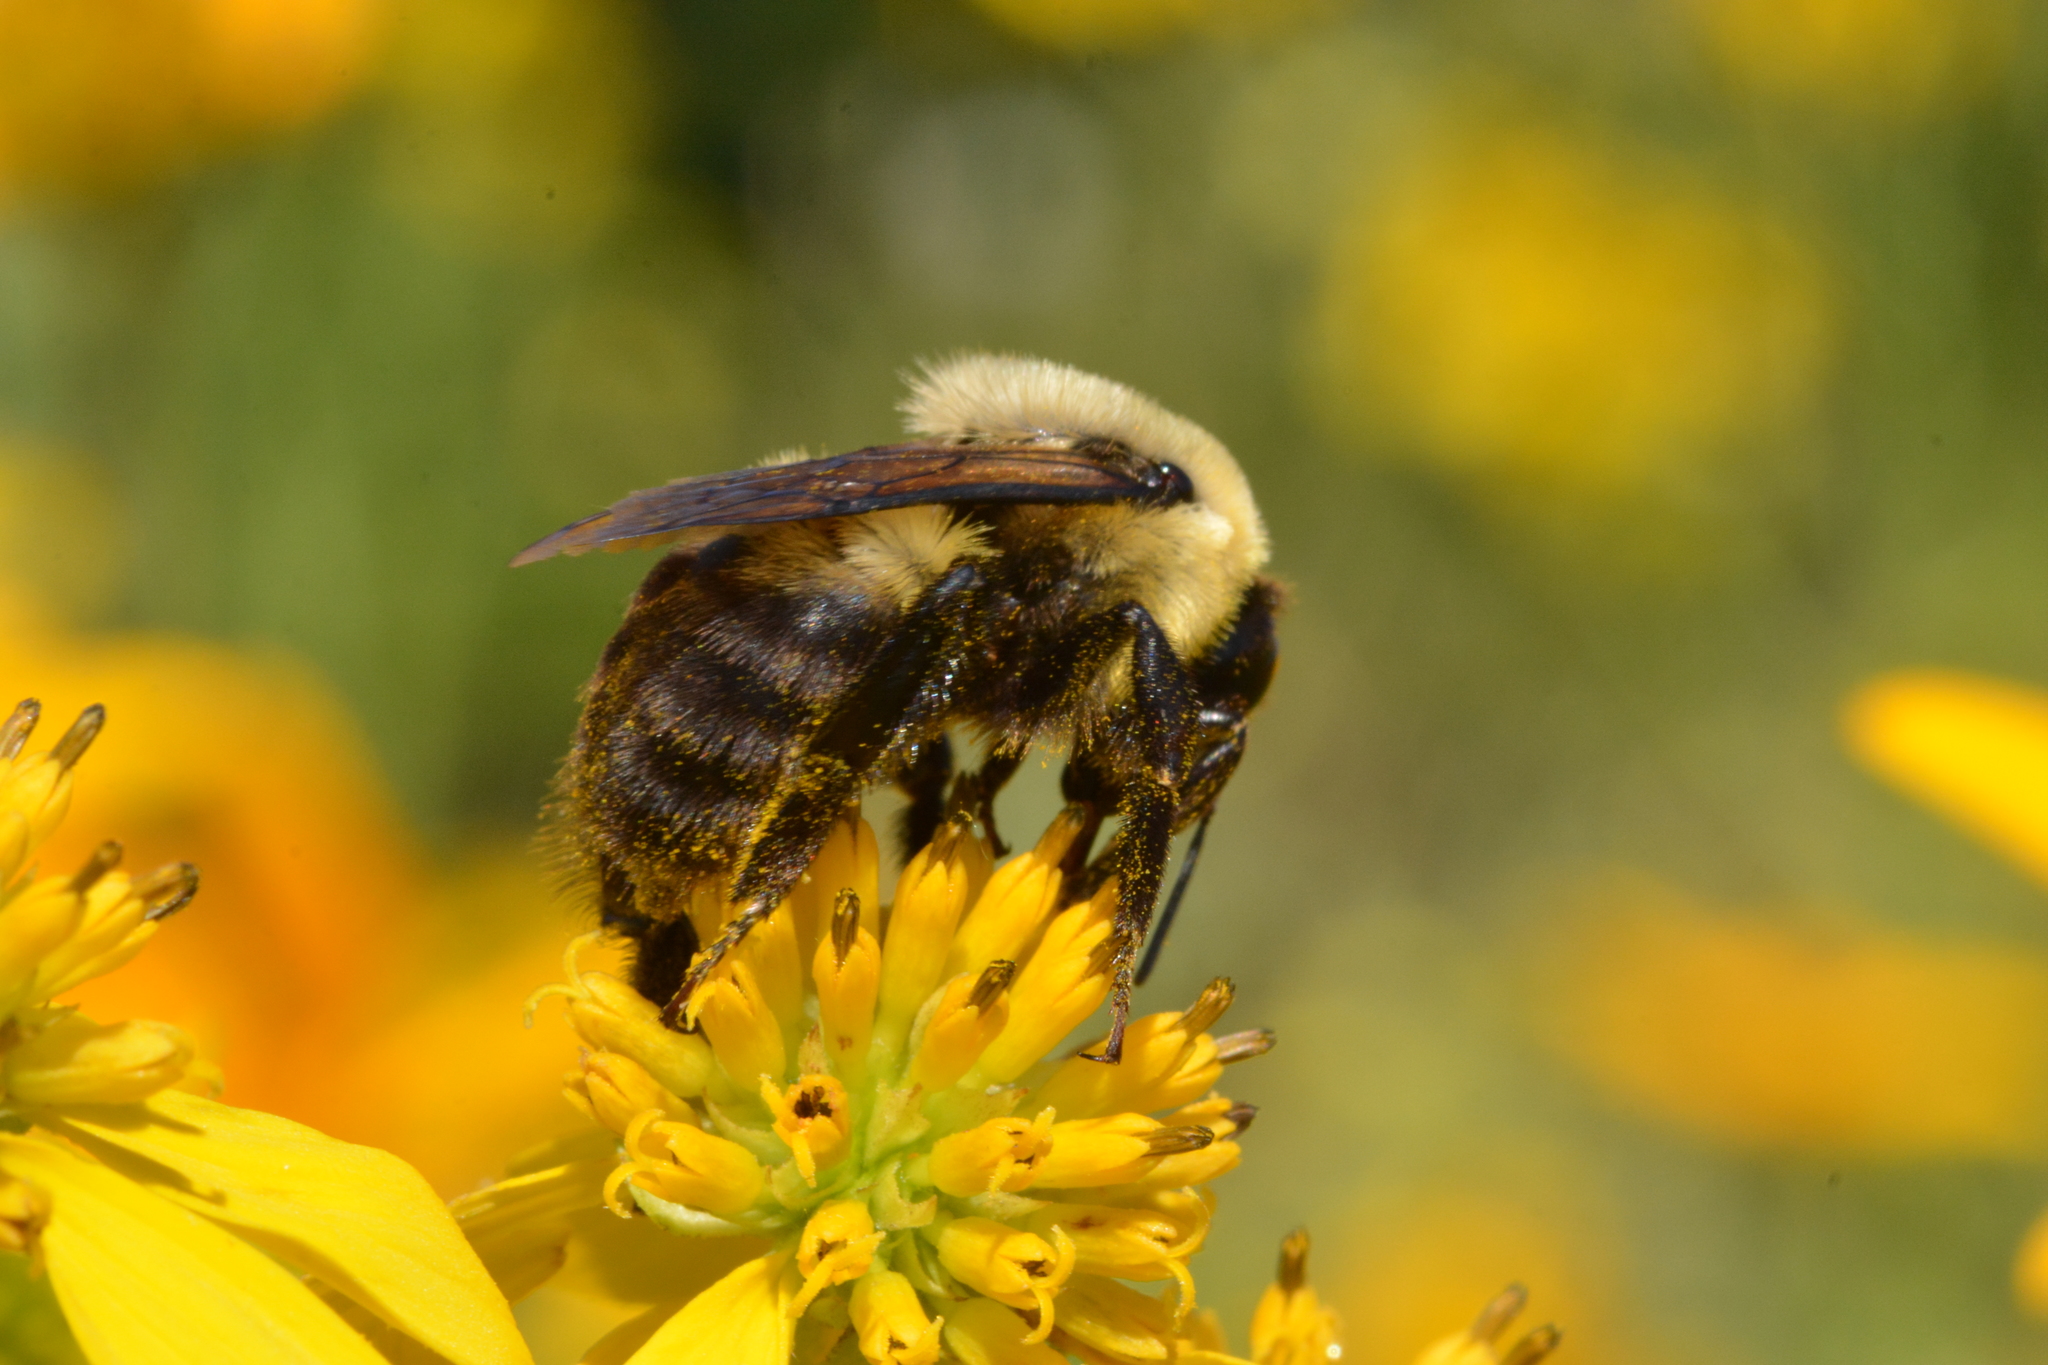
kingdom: Animalia
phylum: Arthropoda
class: Insecta
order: Hymenoptera
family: Apidae
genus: Bombus
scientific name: Bombus griseocollis
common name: Brown-belted bumble bee
